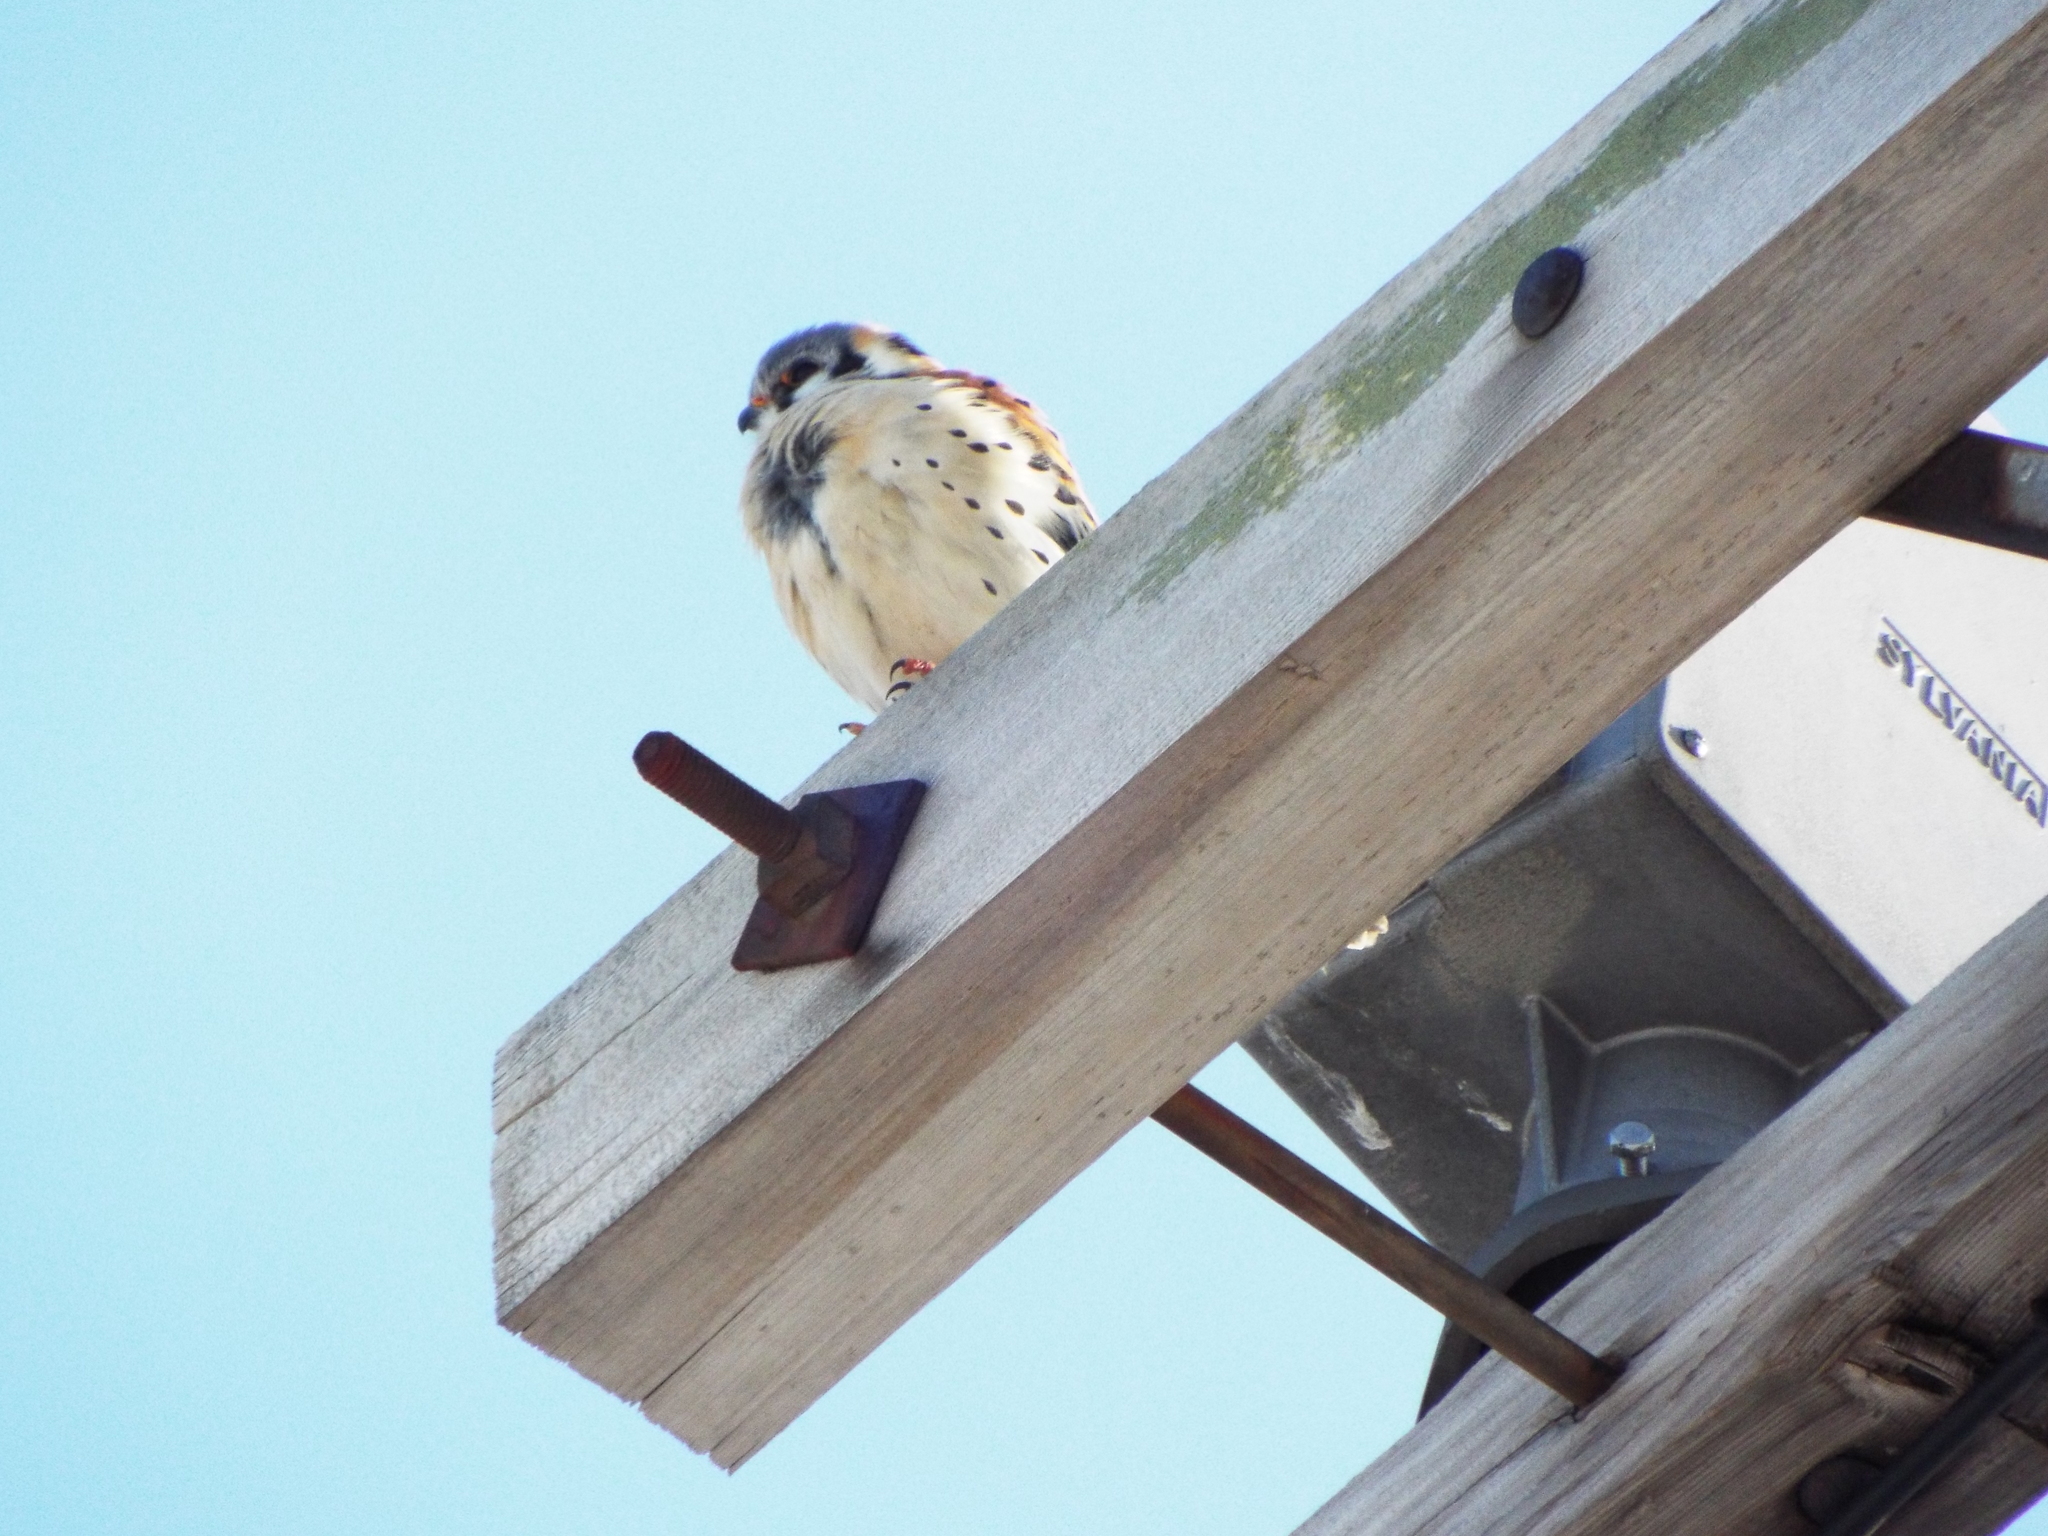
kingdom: Animalia
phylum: Chordata
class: Aves
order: Falconiformes
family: Falconidae
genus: Falco
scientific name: Falco sparverius
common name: American kestrel
